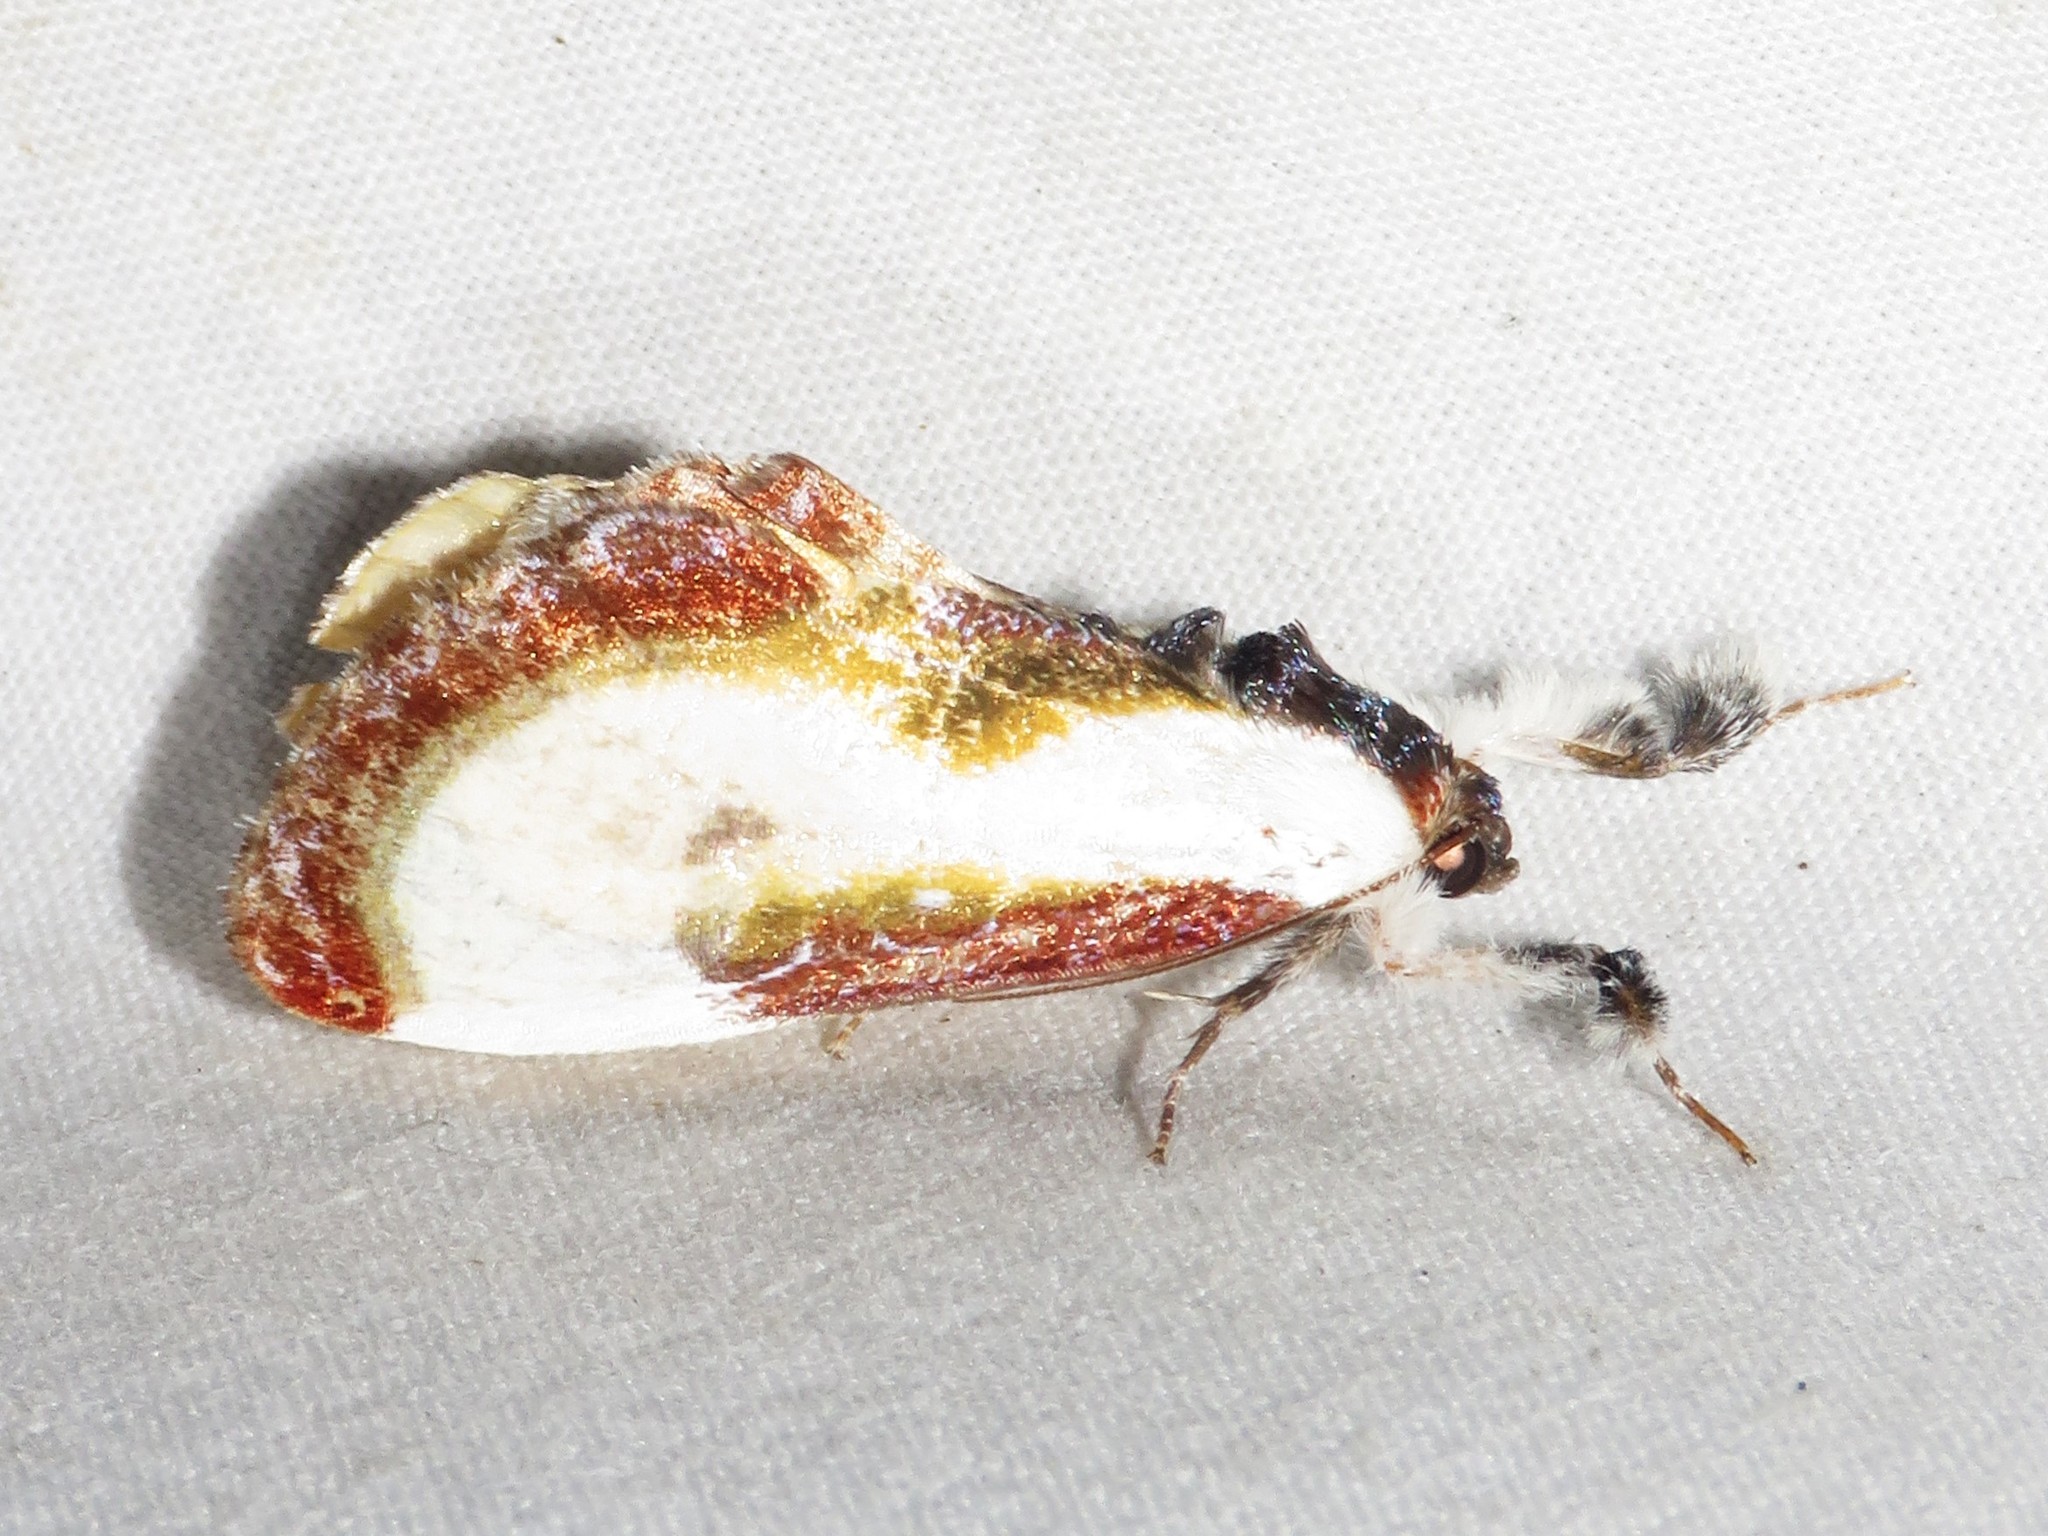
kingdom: Animalia
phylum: Arthropoda
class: Insecta
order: Lepidoptera
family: Noctuidae
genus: Eudryas
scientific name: Eudryas grata
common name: Beautiful wood-nymph
